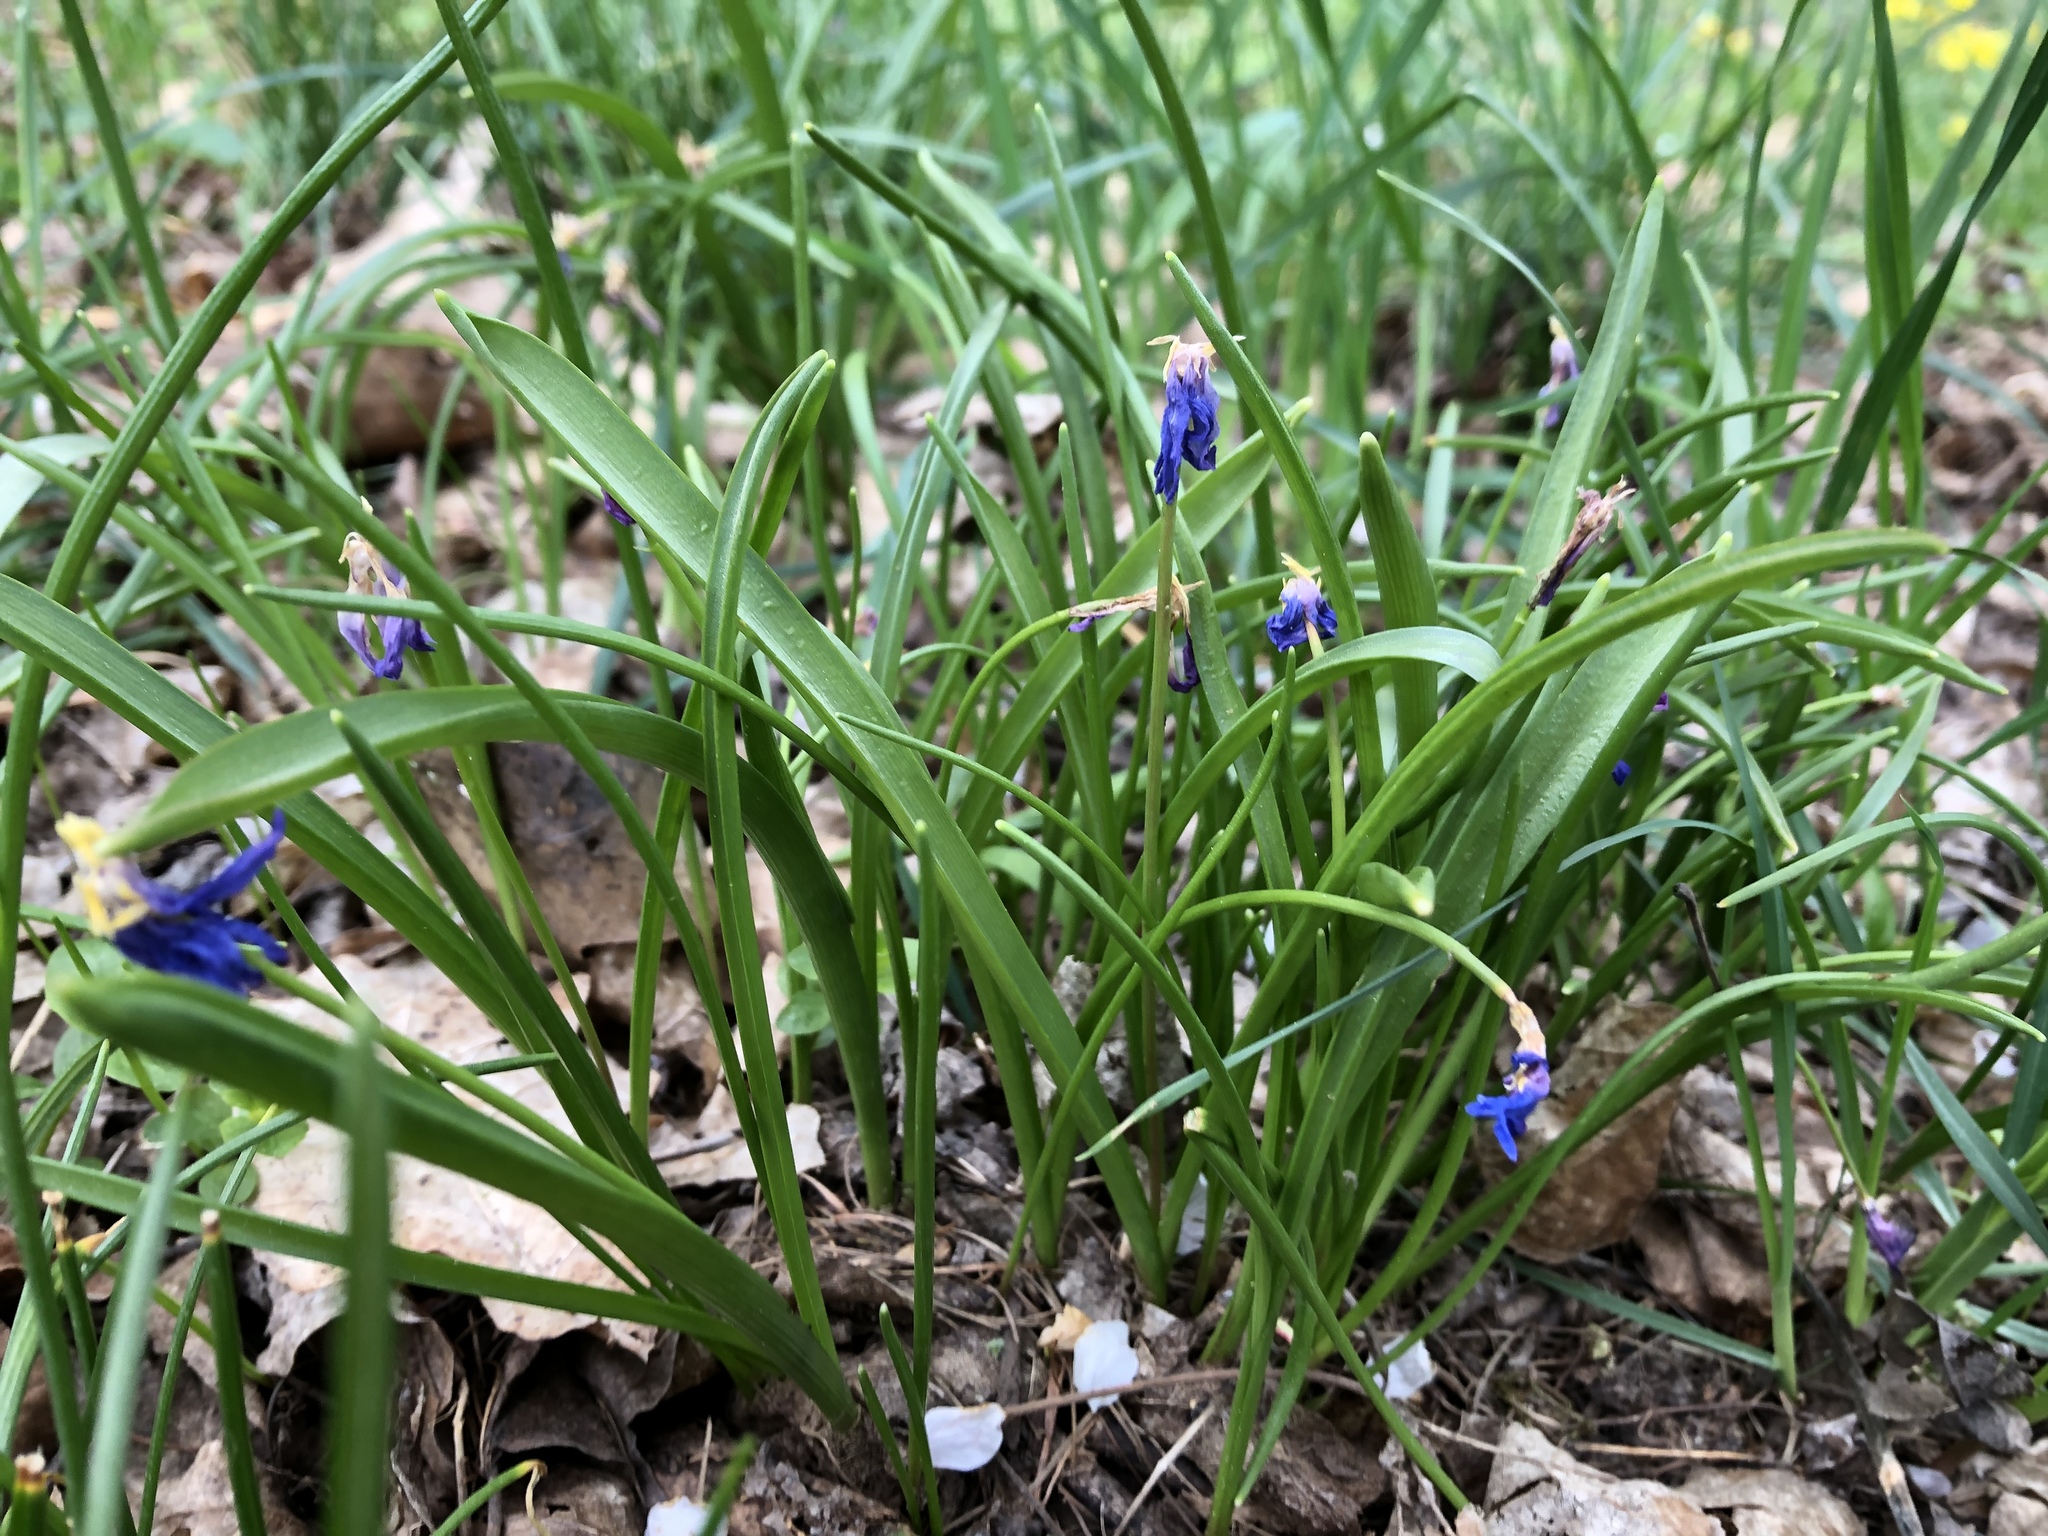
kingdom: Plantae
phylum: Tracheophyta
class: Liliopsida
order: Asparagales
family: Asparagaceae
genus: Scilla
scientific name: Scilla siberica
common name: Siberian squill
